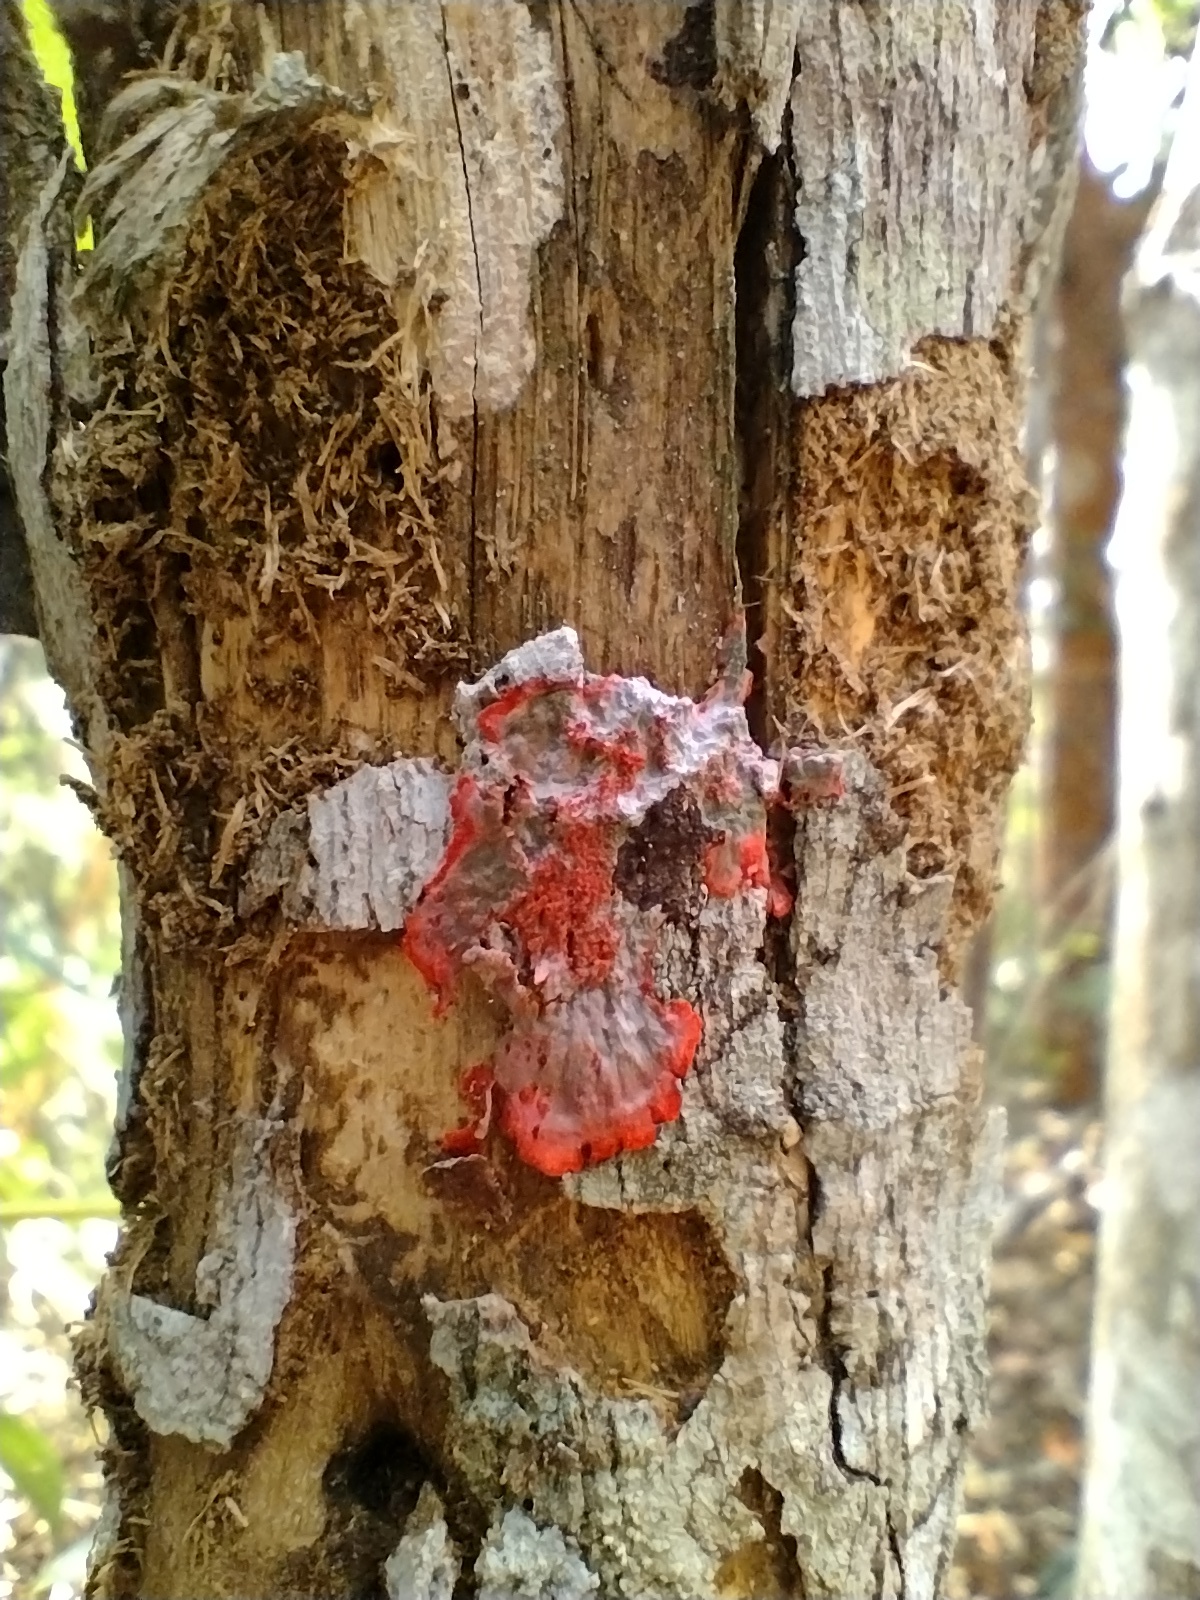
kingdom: Fungi
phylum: Ascomycota
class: Arthoniomycetes
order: Arthoniales
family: Arthoniaceae
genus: Herpothallon
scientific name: Herpothallon rubrocinctum
